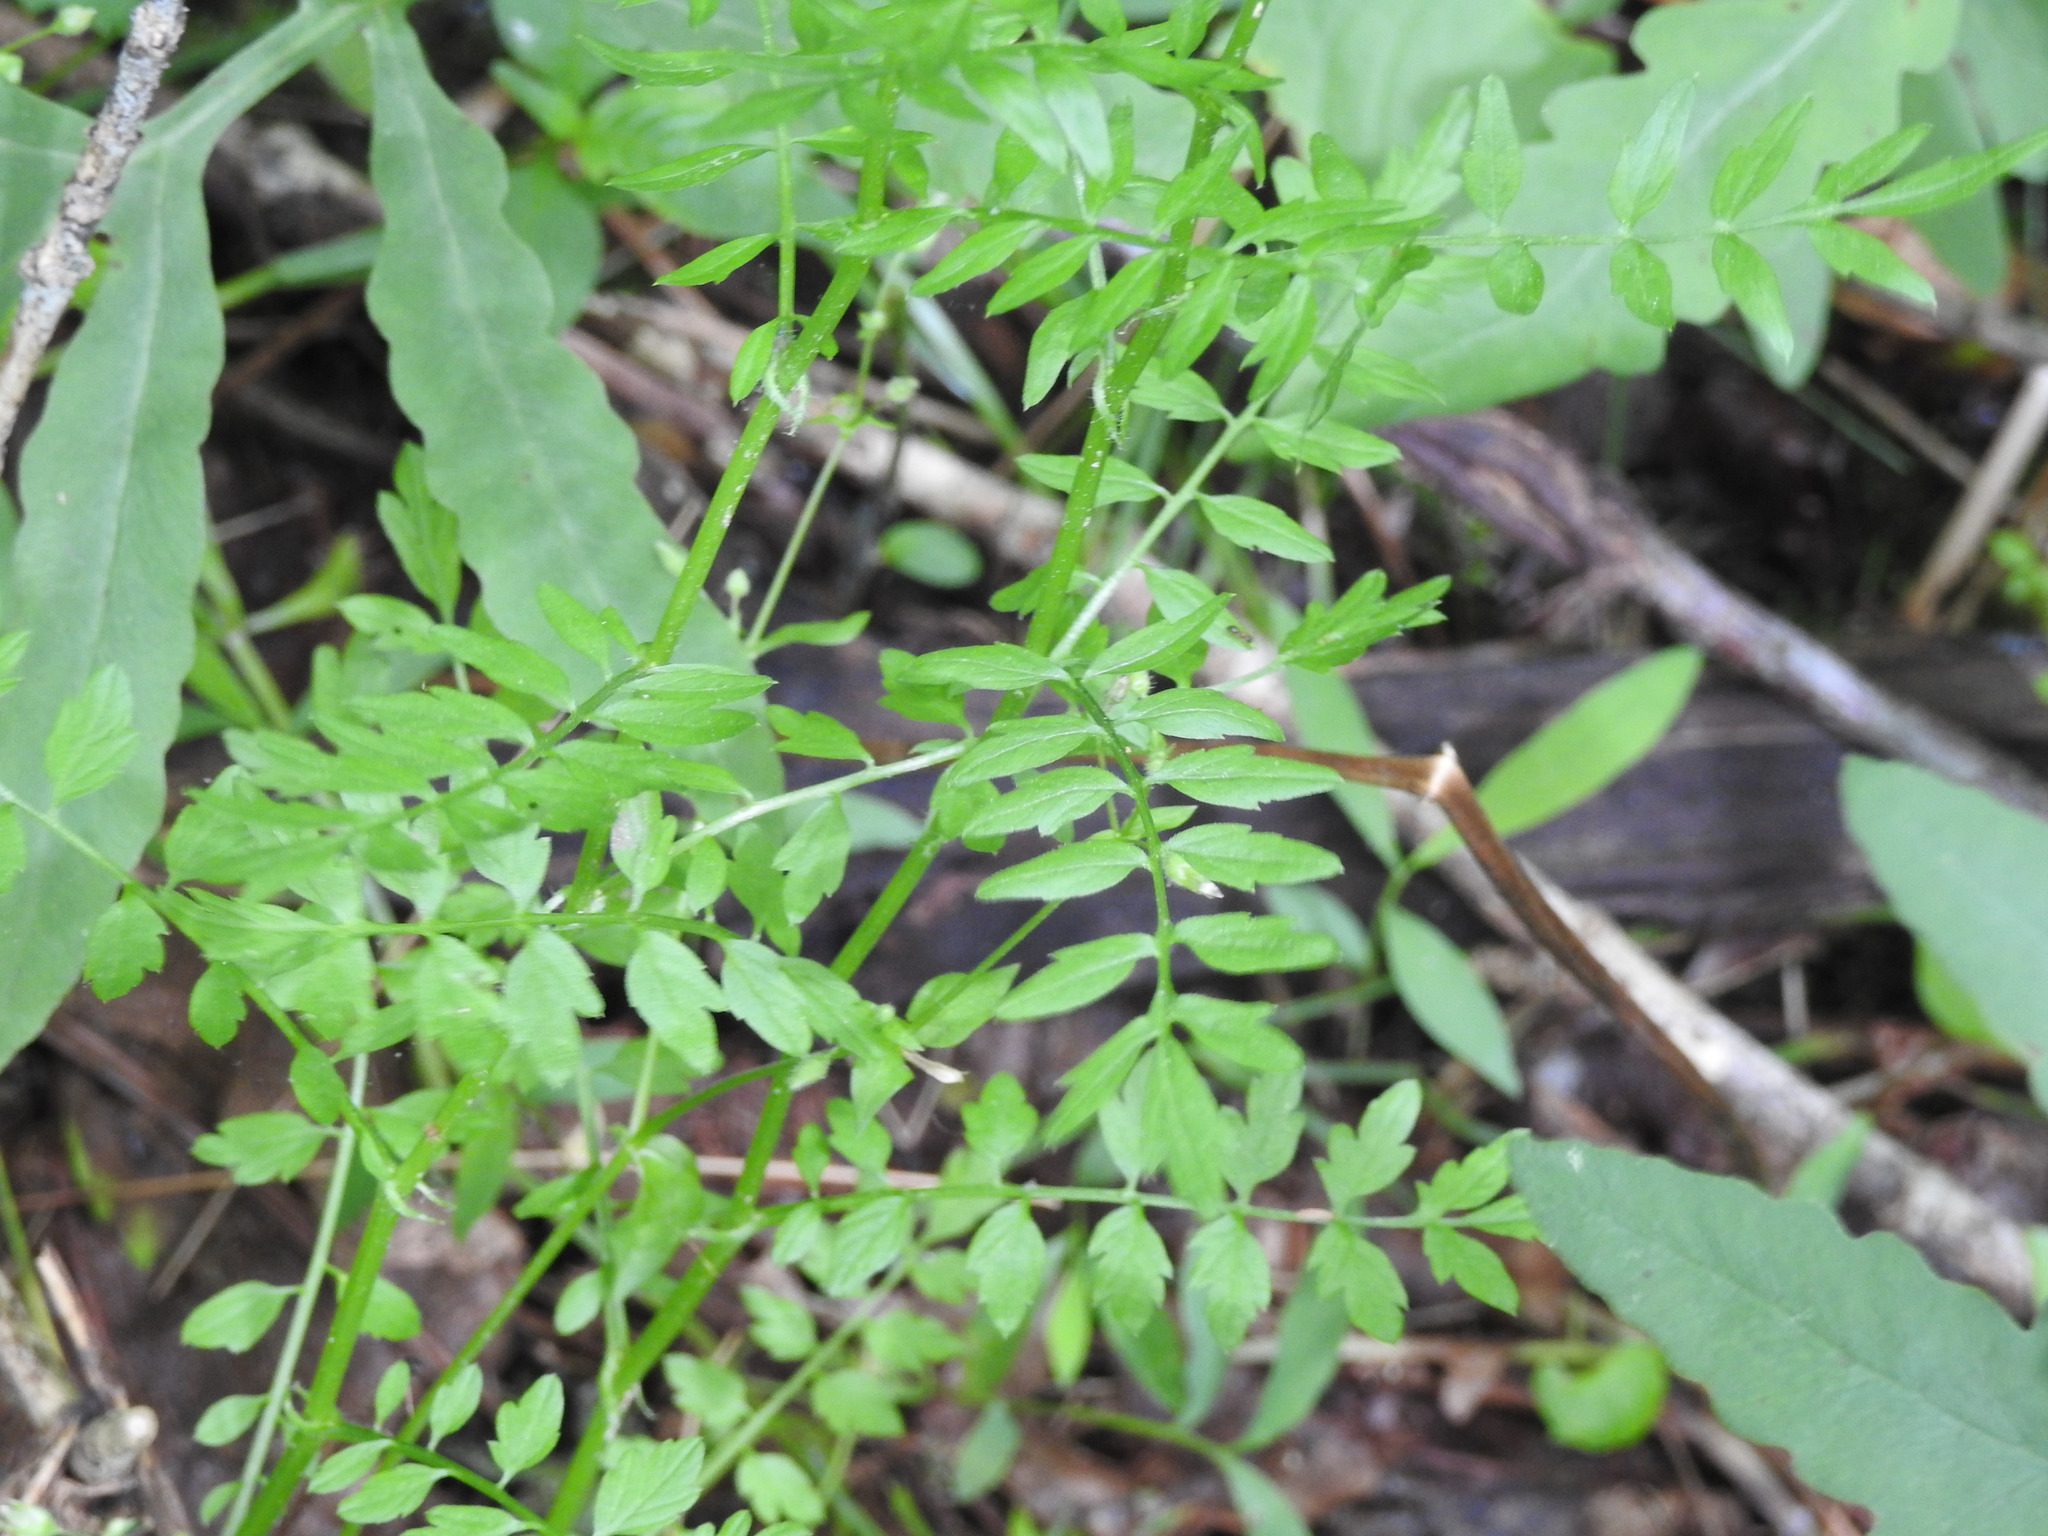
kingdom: Plantae
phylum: Tracheophyta
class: Magnoliopsida
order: Brassicales
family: Brassicaceae
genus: Cardamine
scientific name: Cardamine impatiens
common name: Narrow-leaved bitter-cress
